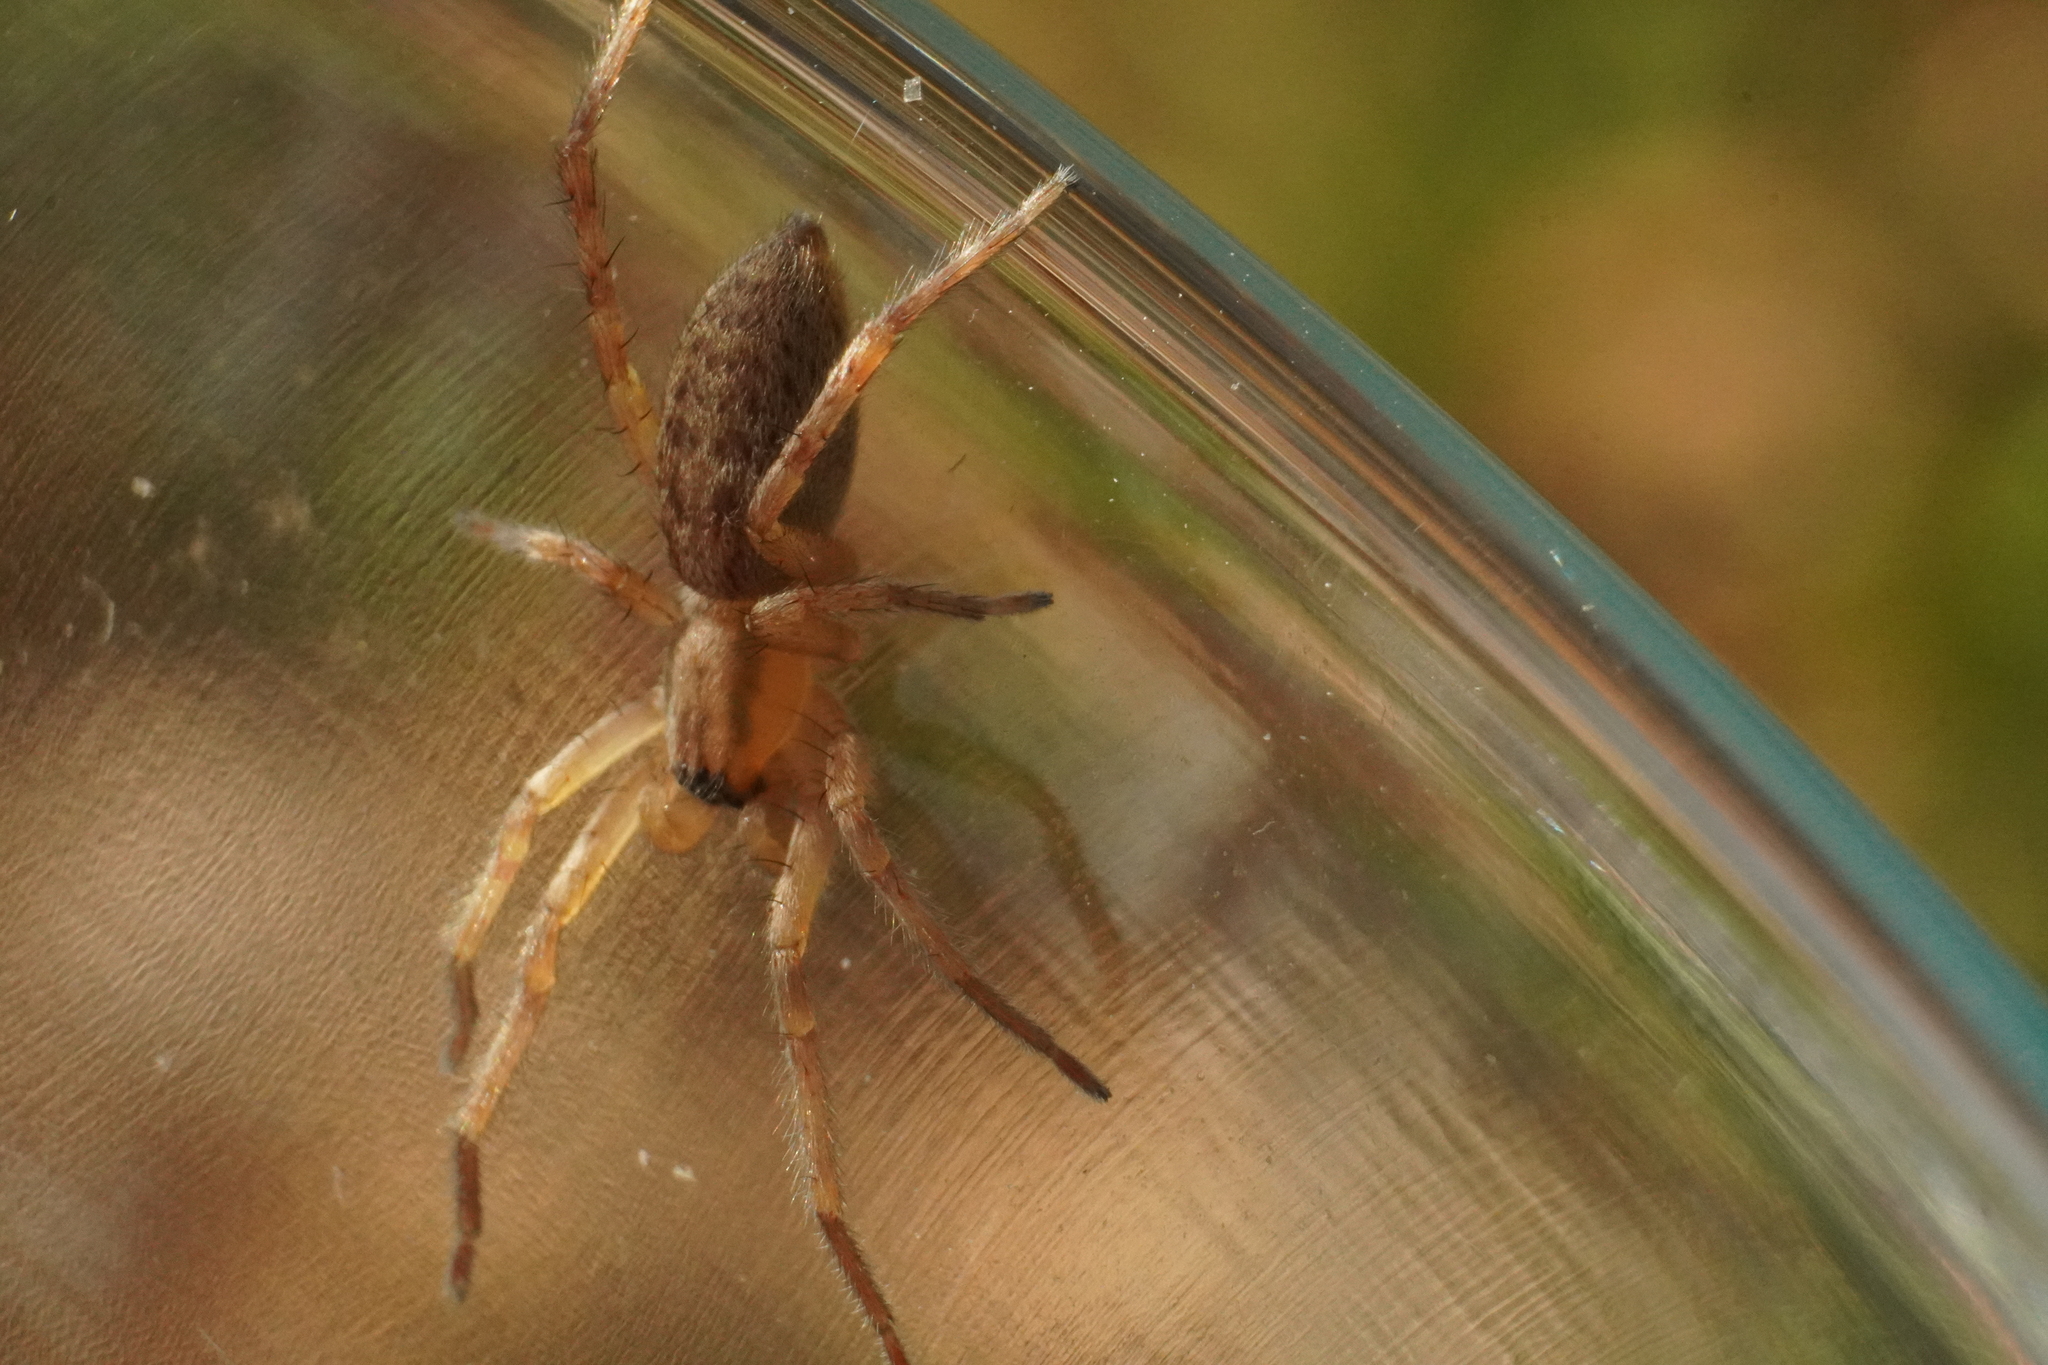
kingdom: Animalia
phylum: Arthropoda
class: Arachnida
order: Araneae
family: Anyphaenidae
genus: Hibana
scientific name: Hibana gracilis
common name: Garden ghost spider
